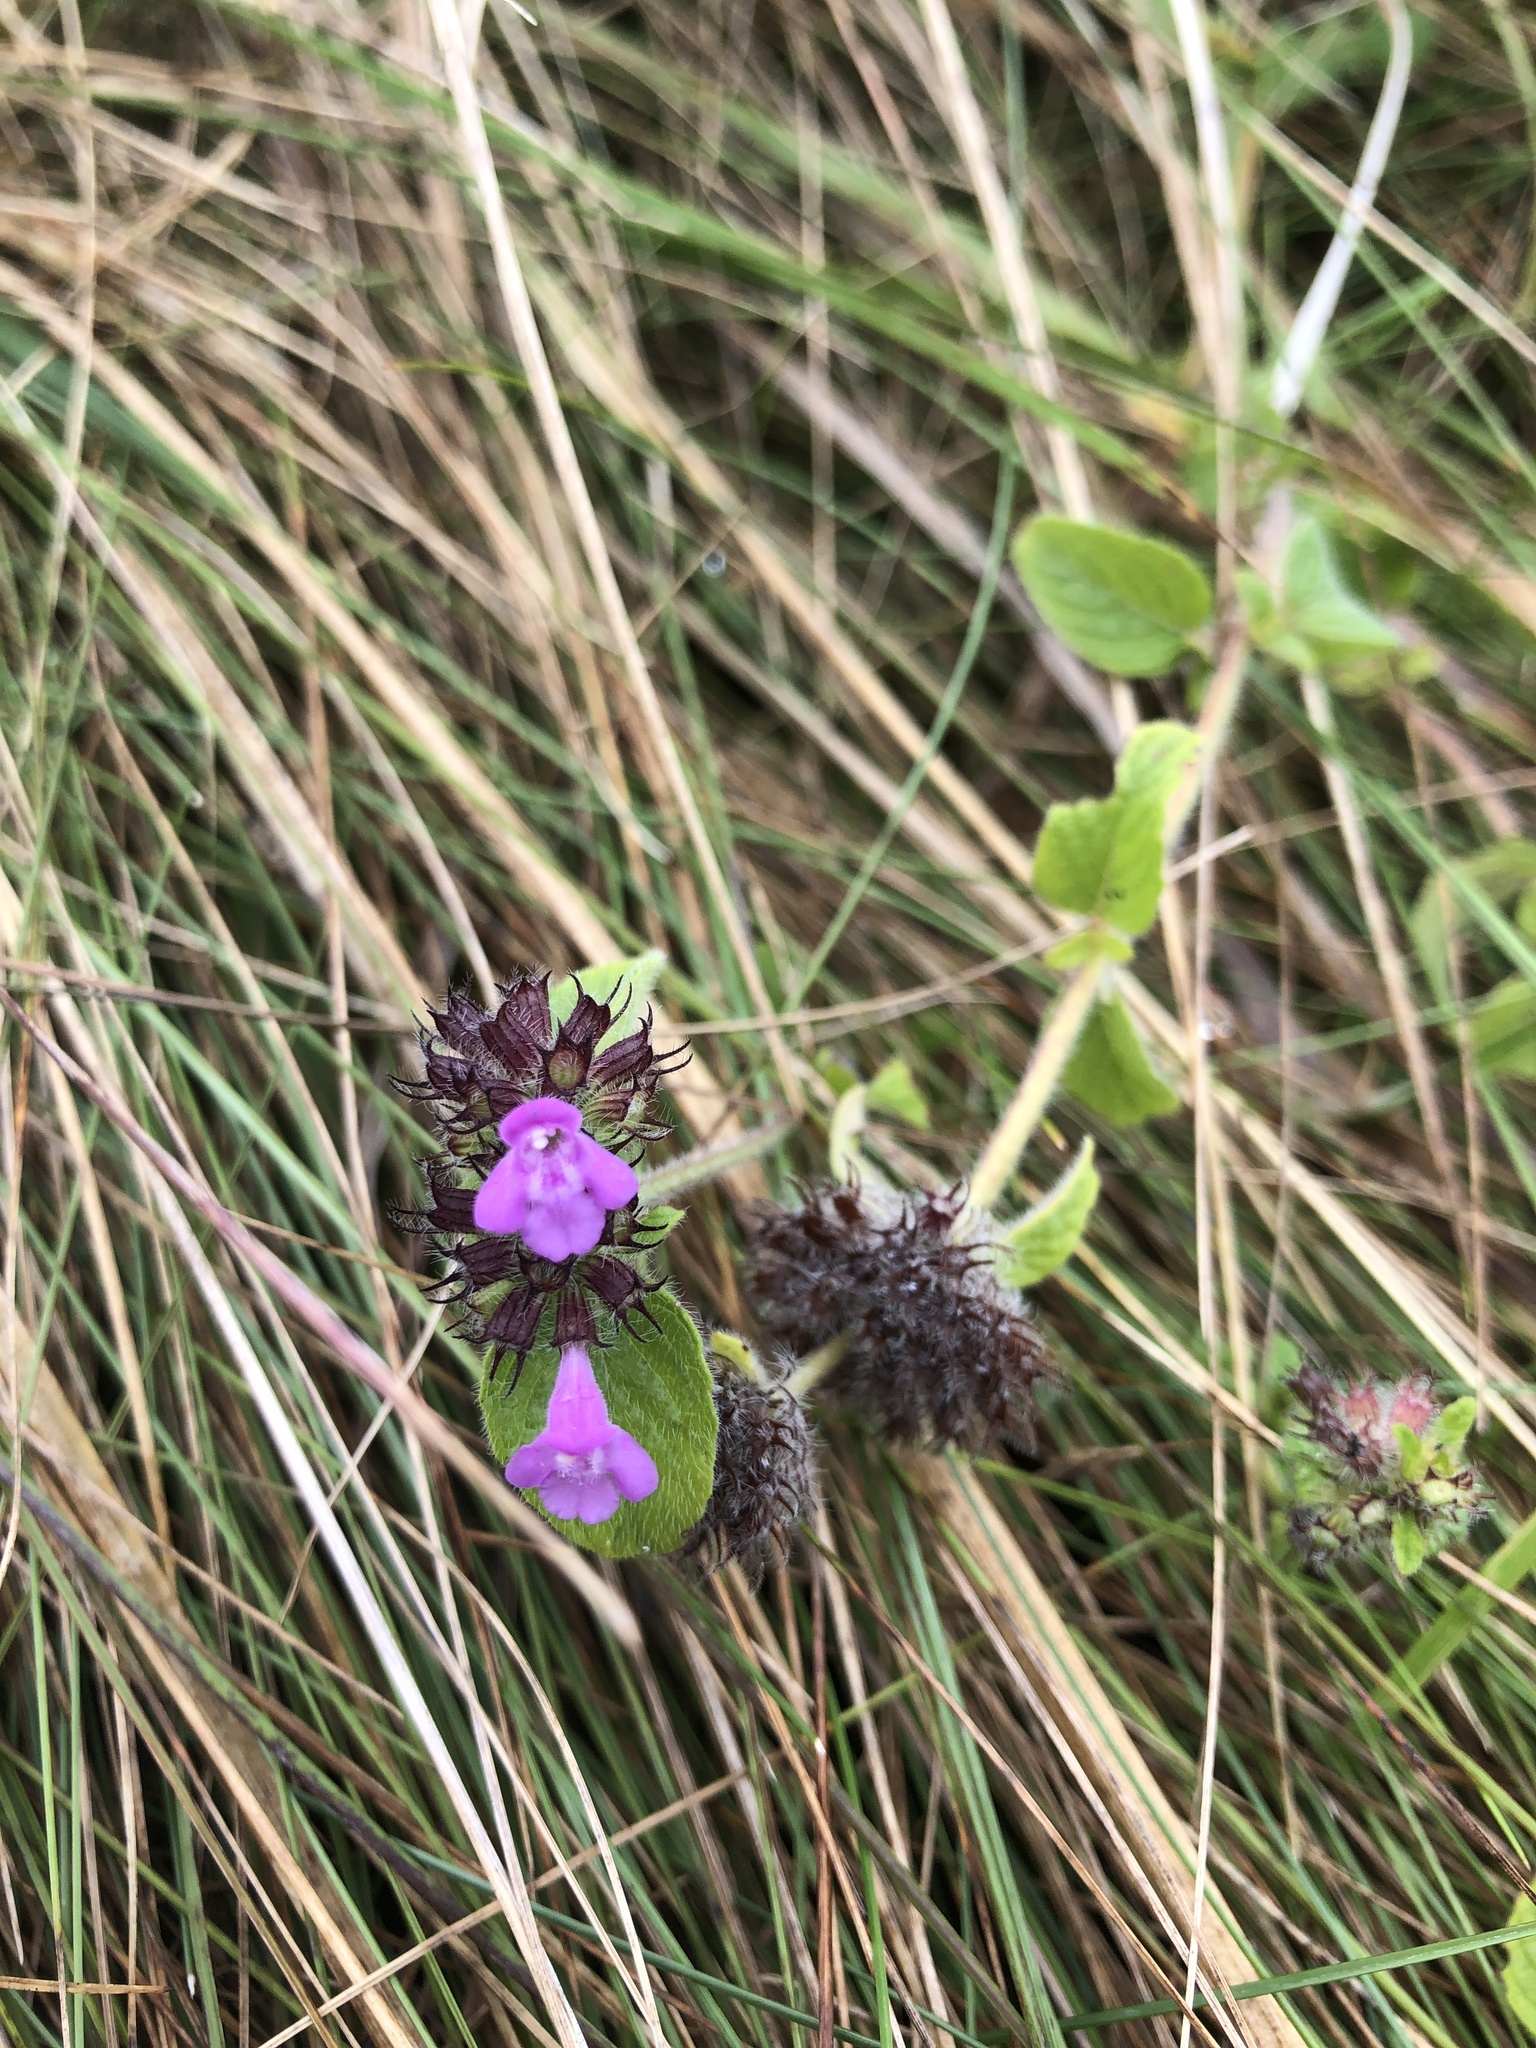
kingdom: Plantae
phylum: Tracheophyta
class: Magnoliopsida
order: Lamiales
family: Lamiaceae
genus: Clinopodium
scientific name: Clinopodium vulgare
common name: Wild basil
